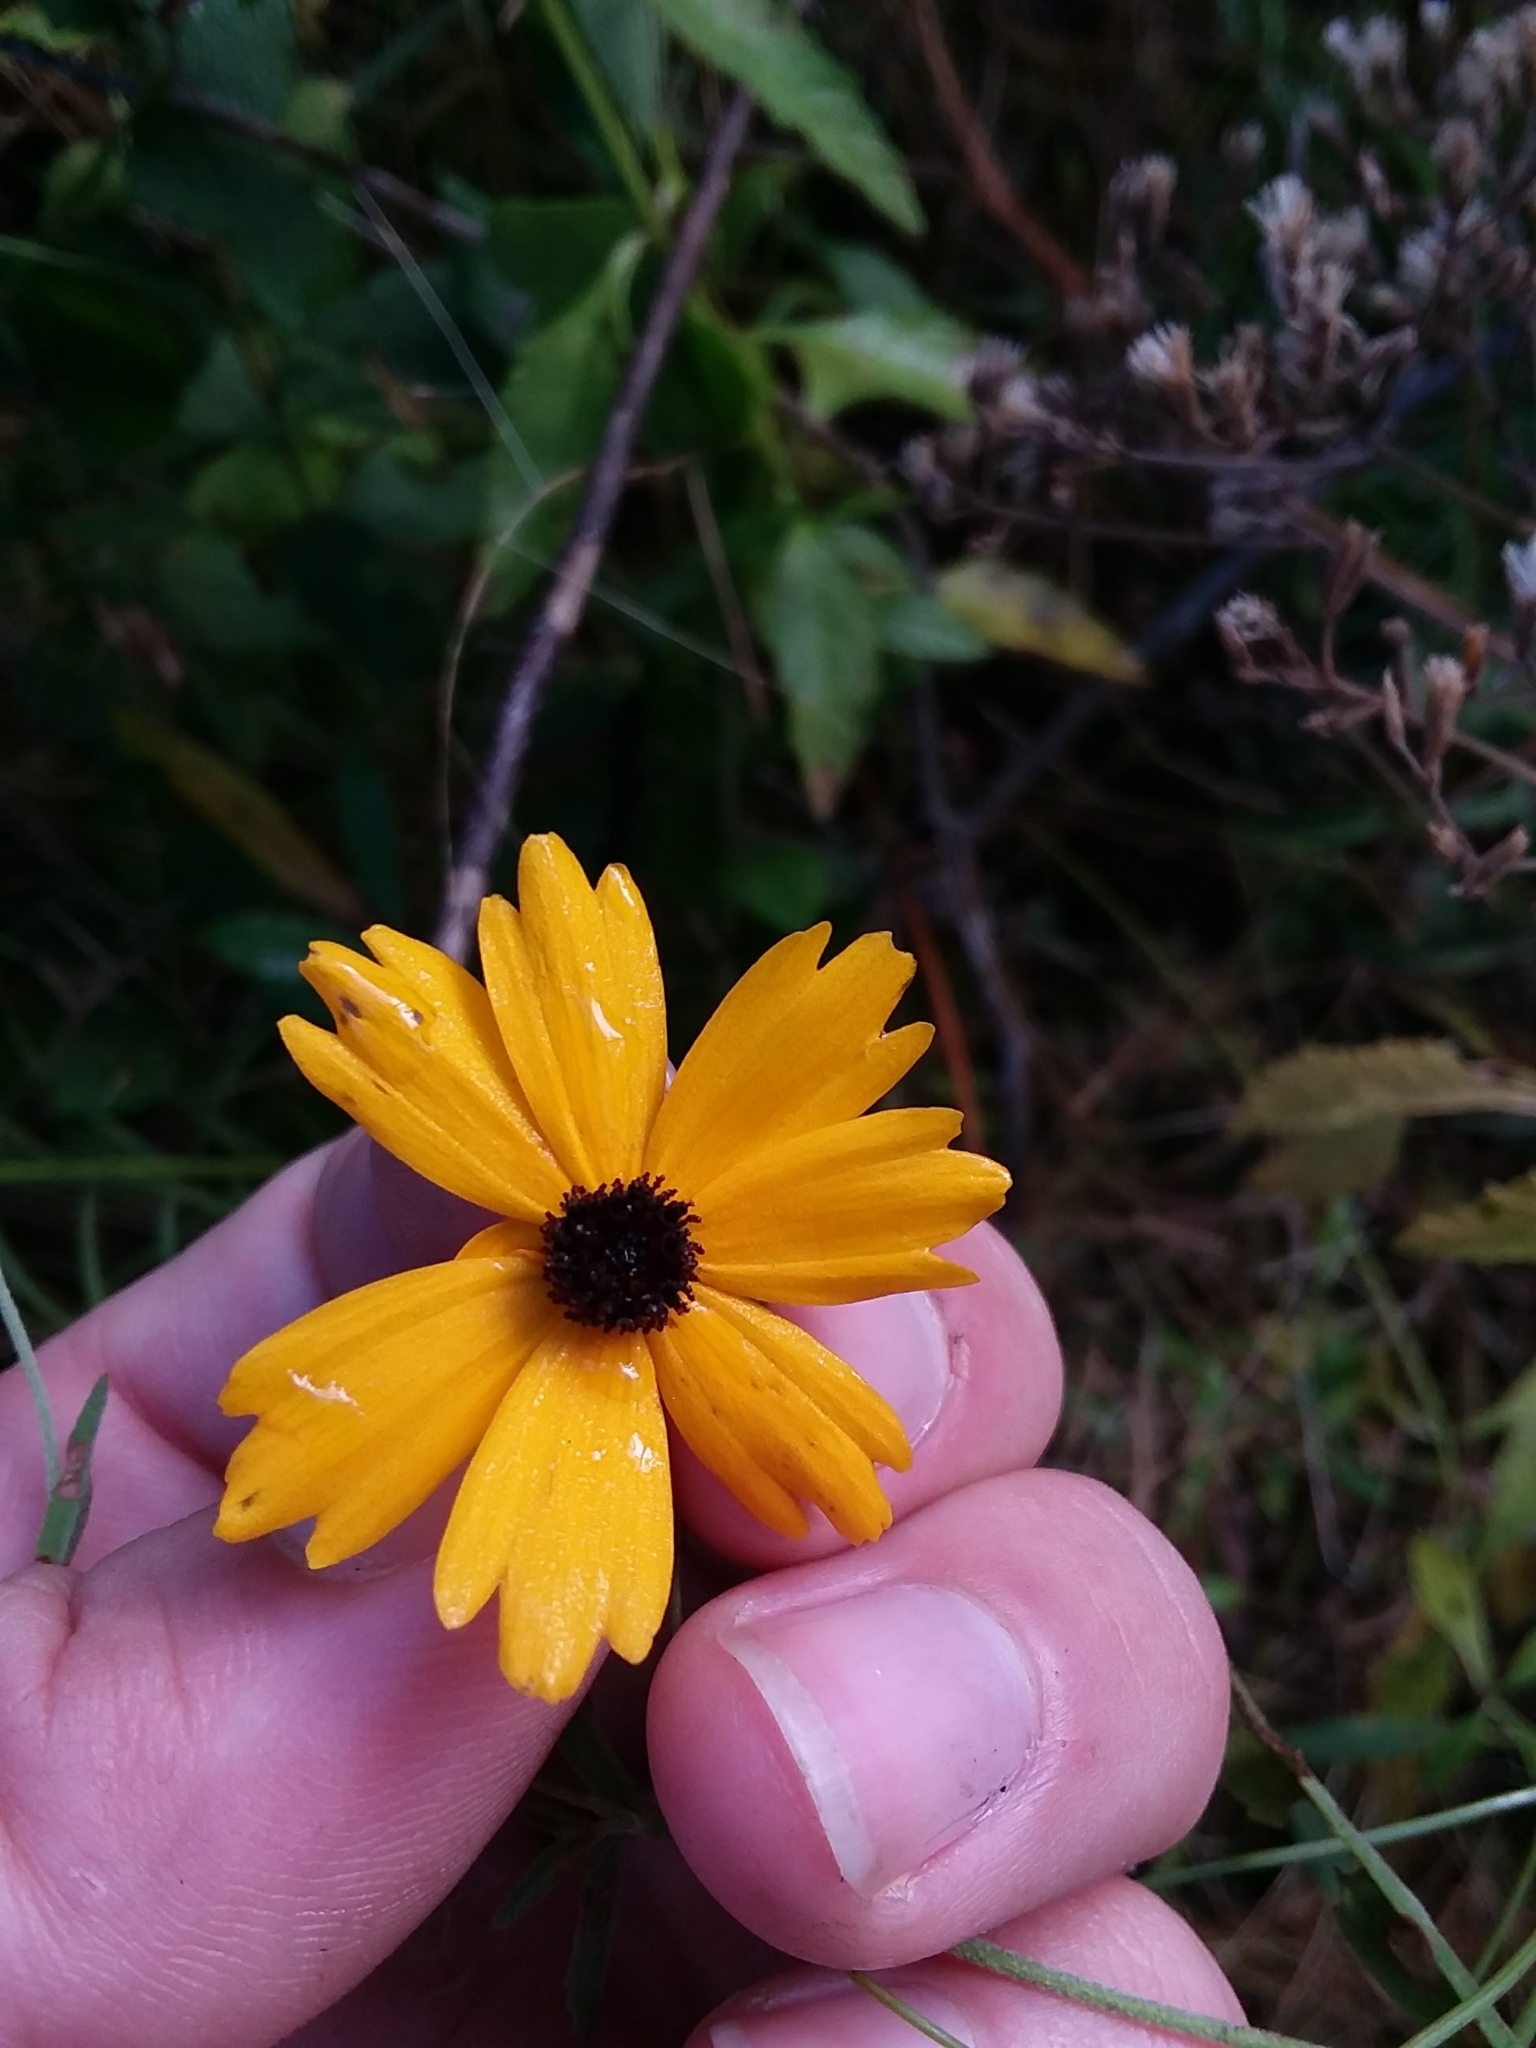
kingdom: Plantae
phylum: Tracheophyta
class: Magnoliopsida
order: Asterales
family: Asteraceae
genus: Coreopsis
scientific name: Coreopsis gladiata
